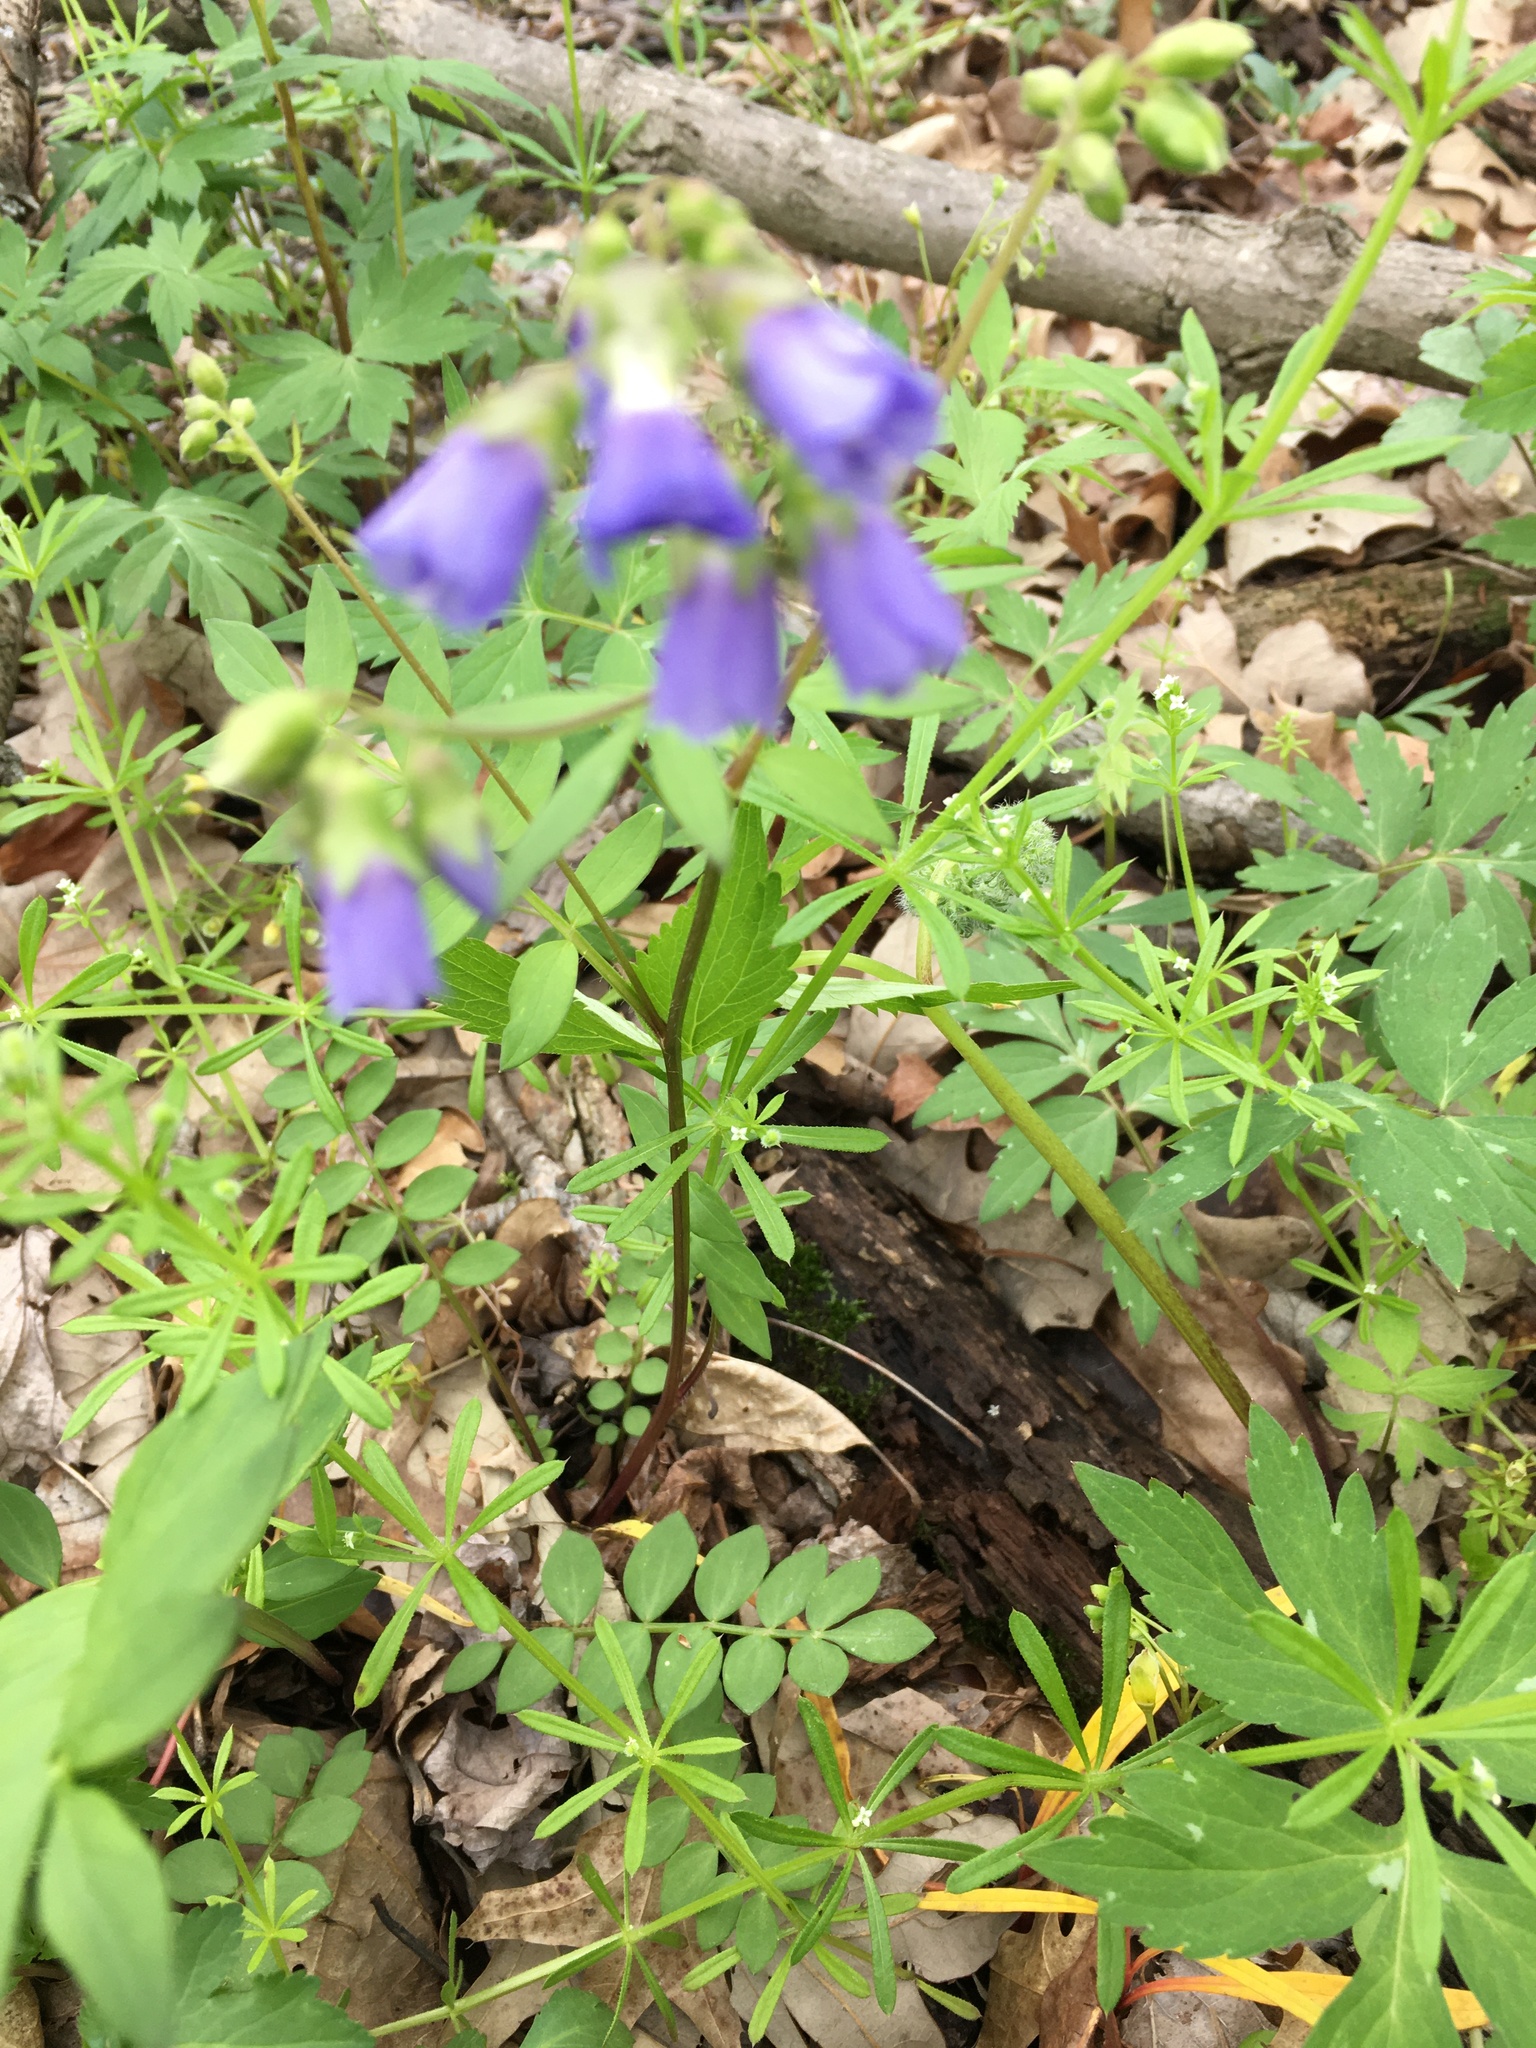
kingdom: Plantae
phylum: Tracheophyta
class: Magnoliopsida
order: Ericales
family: Polemoniaceae
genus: Polemonium
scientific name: Polemonium reptans
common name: Creeping jacob's-ladder
